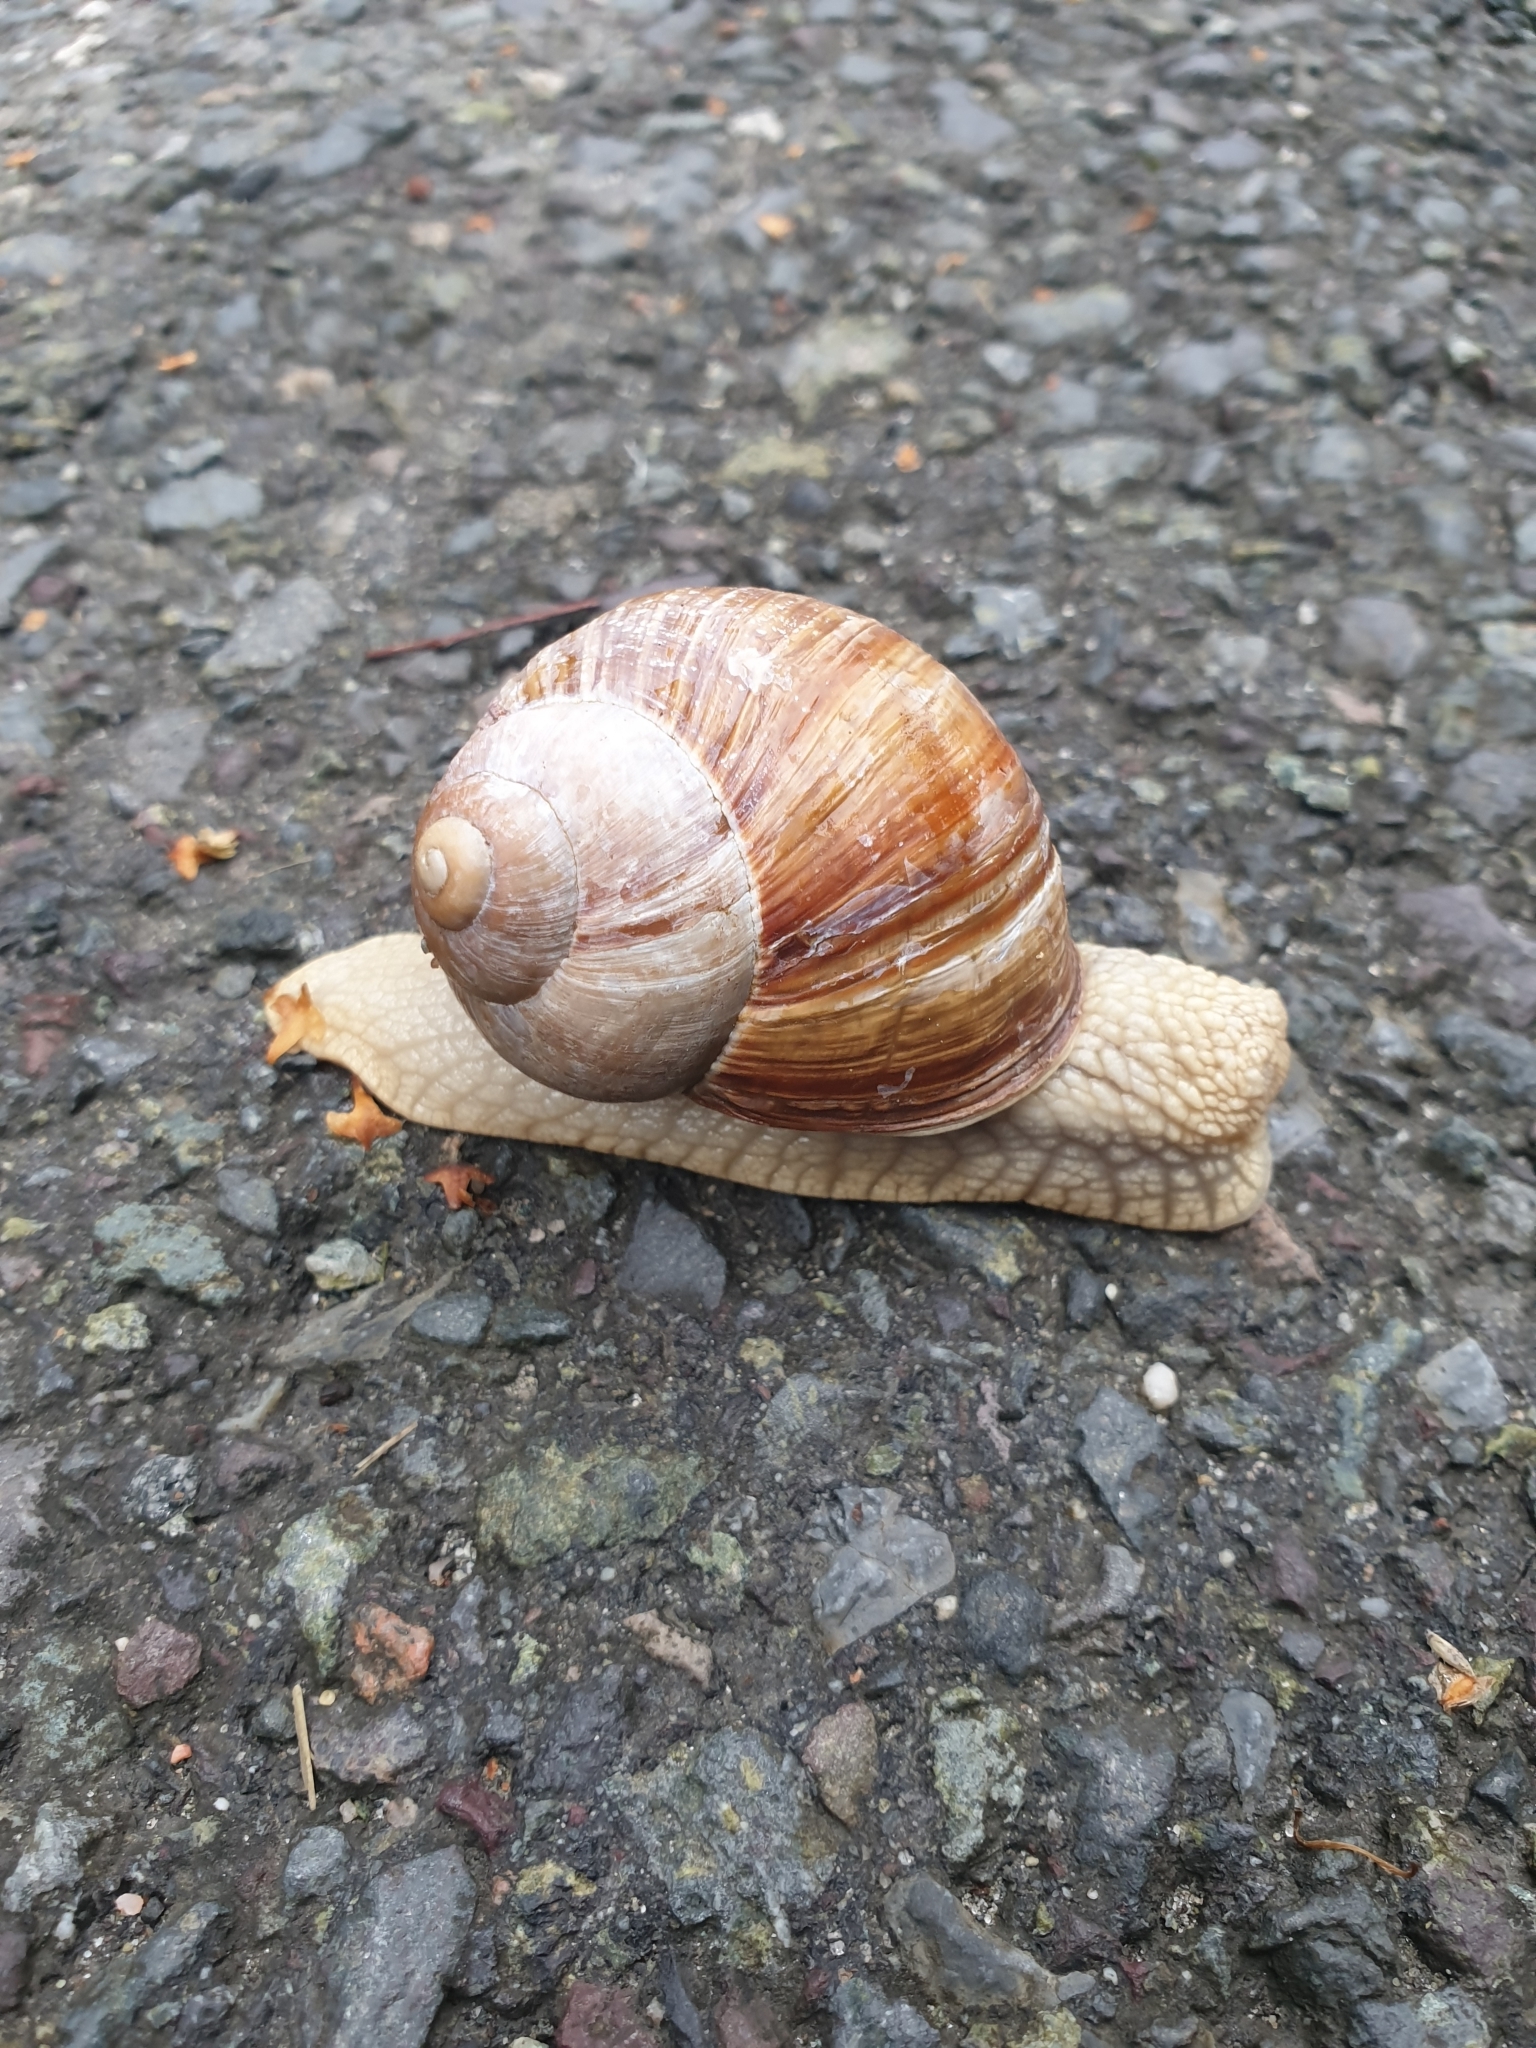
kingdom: Animalia
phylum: Mollusca
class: Gastropoda
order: Stylommatophora
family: Helicidae
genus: Helix
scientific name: Helix pomatia
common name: Roman snail
